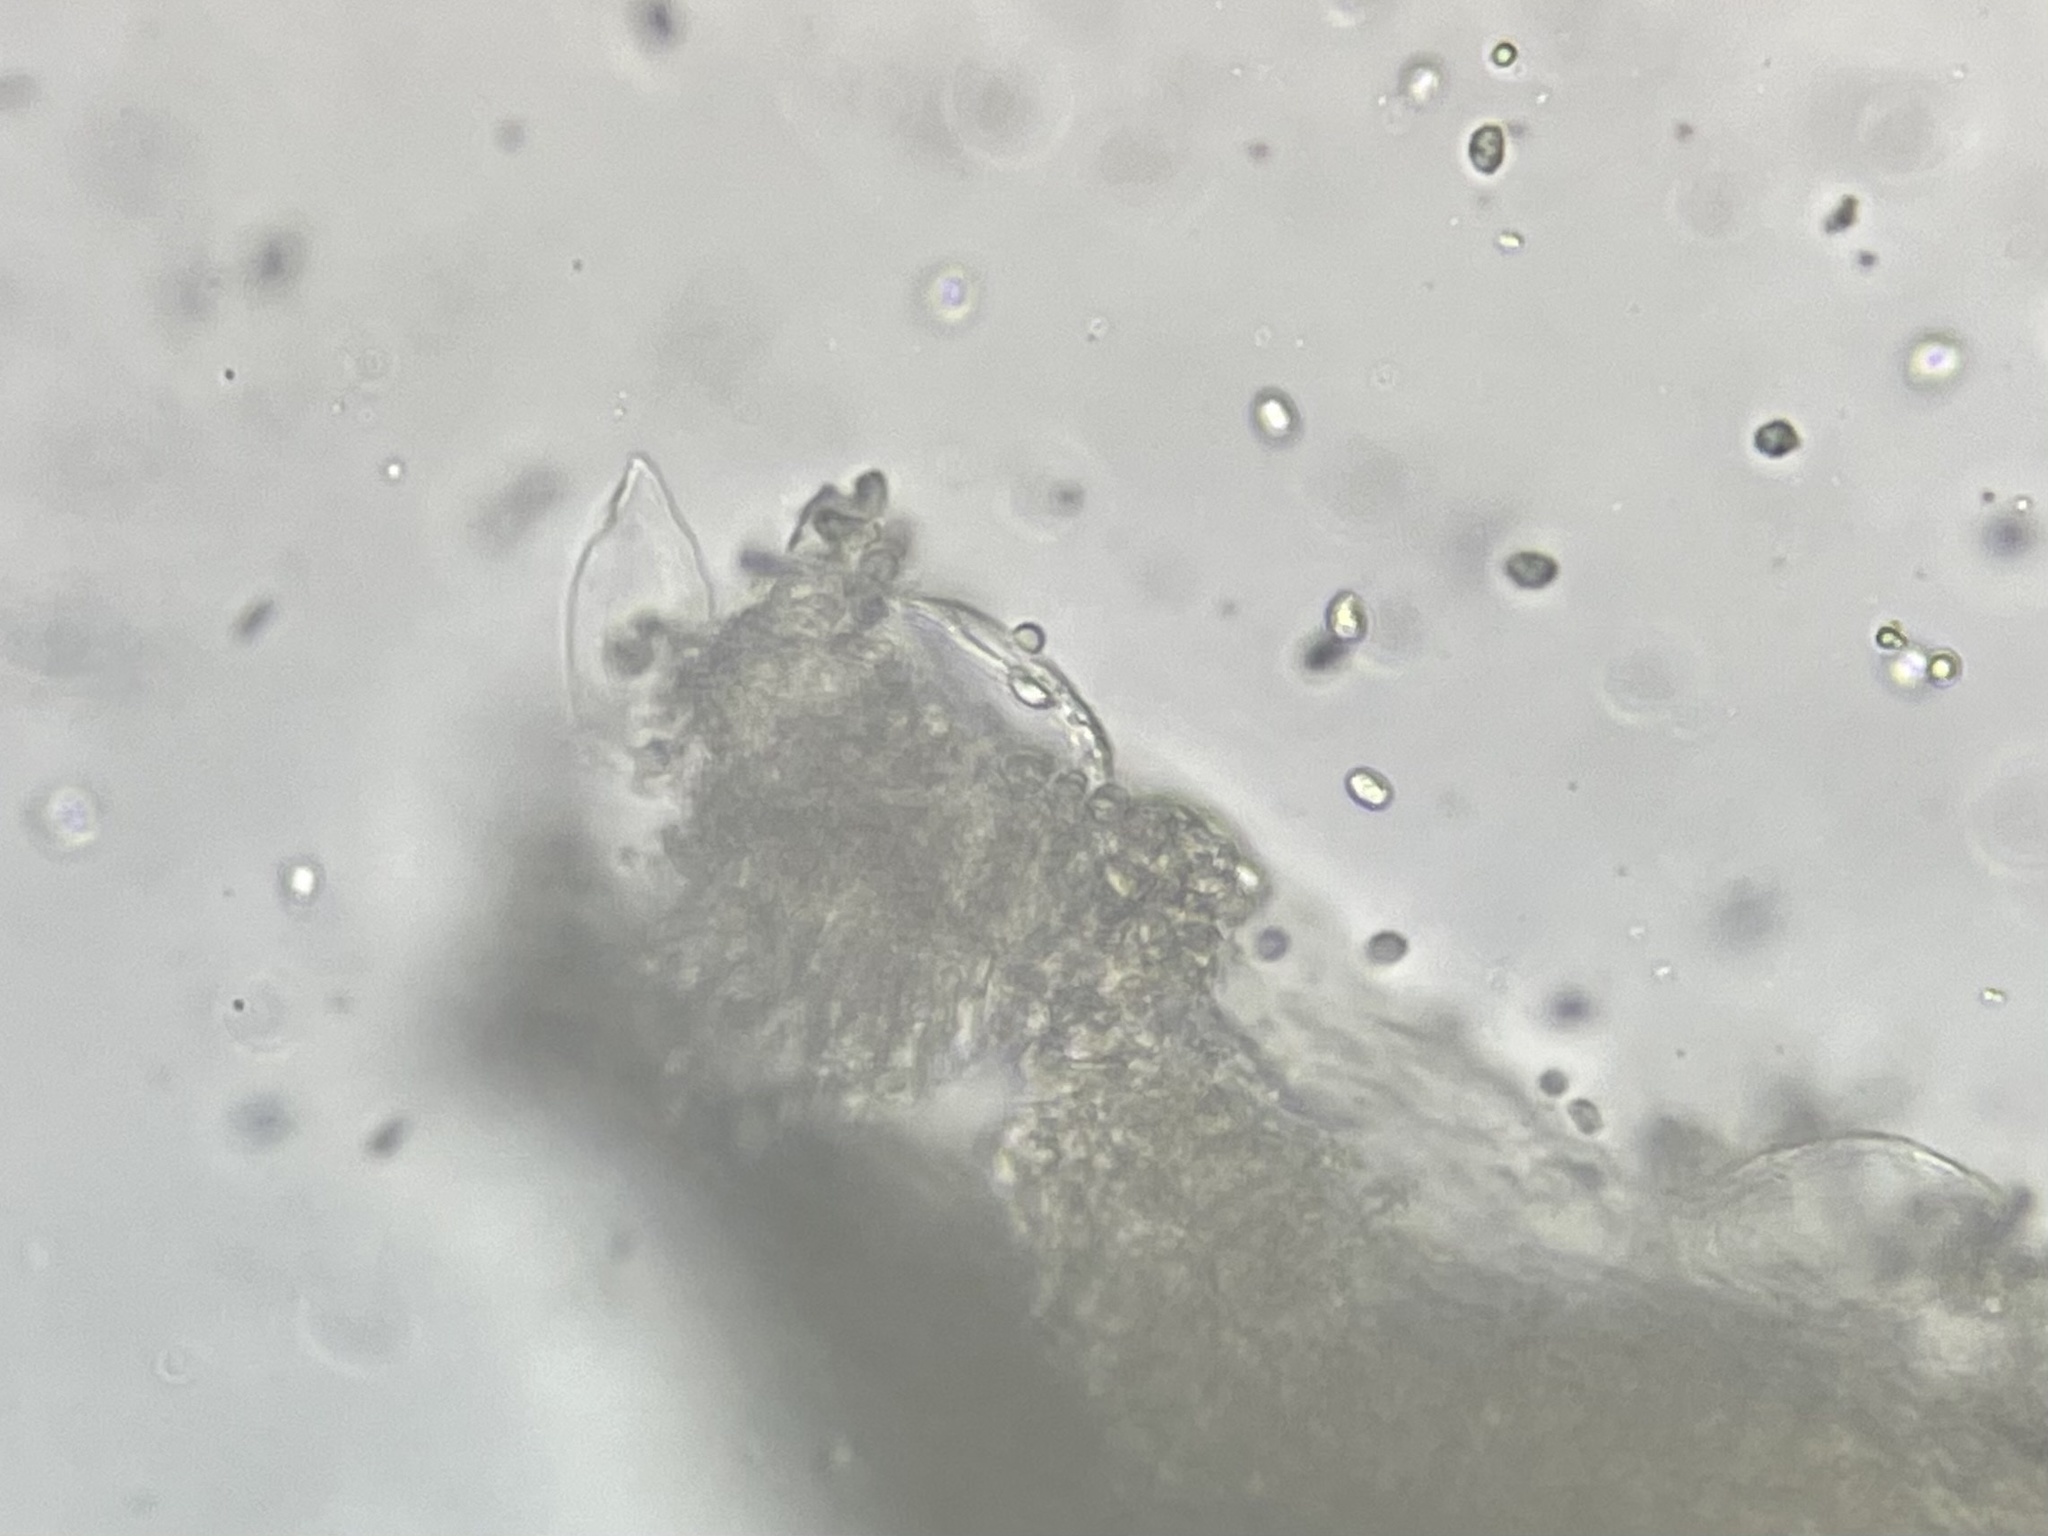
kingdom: Fungi
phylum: Basidiomycota
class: Agaricomycetes
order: Agaricales
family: Tricholomataceae
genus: Tricholoma
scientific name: Tricholoma portentosum
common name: Coalman
